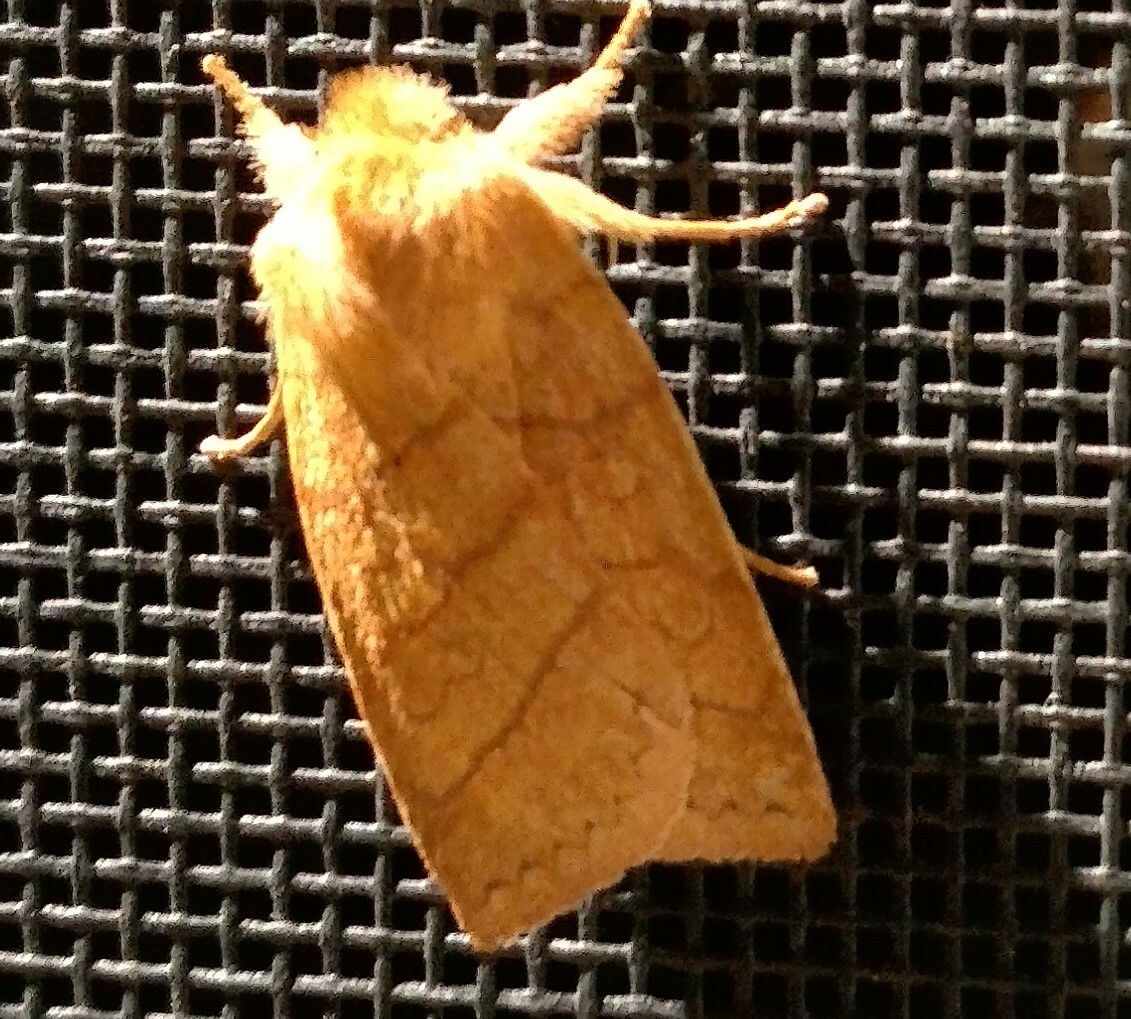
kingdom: Animalia
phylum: Arthropoda
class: Insecta
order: Lepidoptera
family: Noctuidae
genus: Pyreferra
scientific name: Pyreferra hesperidago
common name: Mustard sallow
